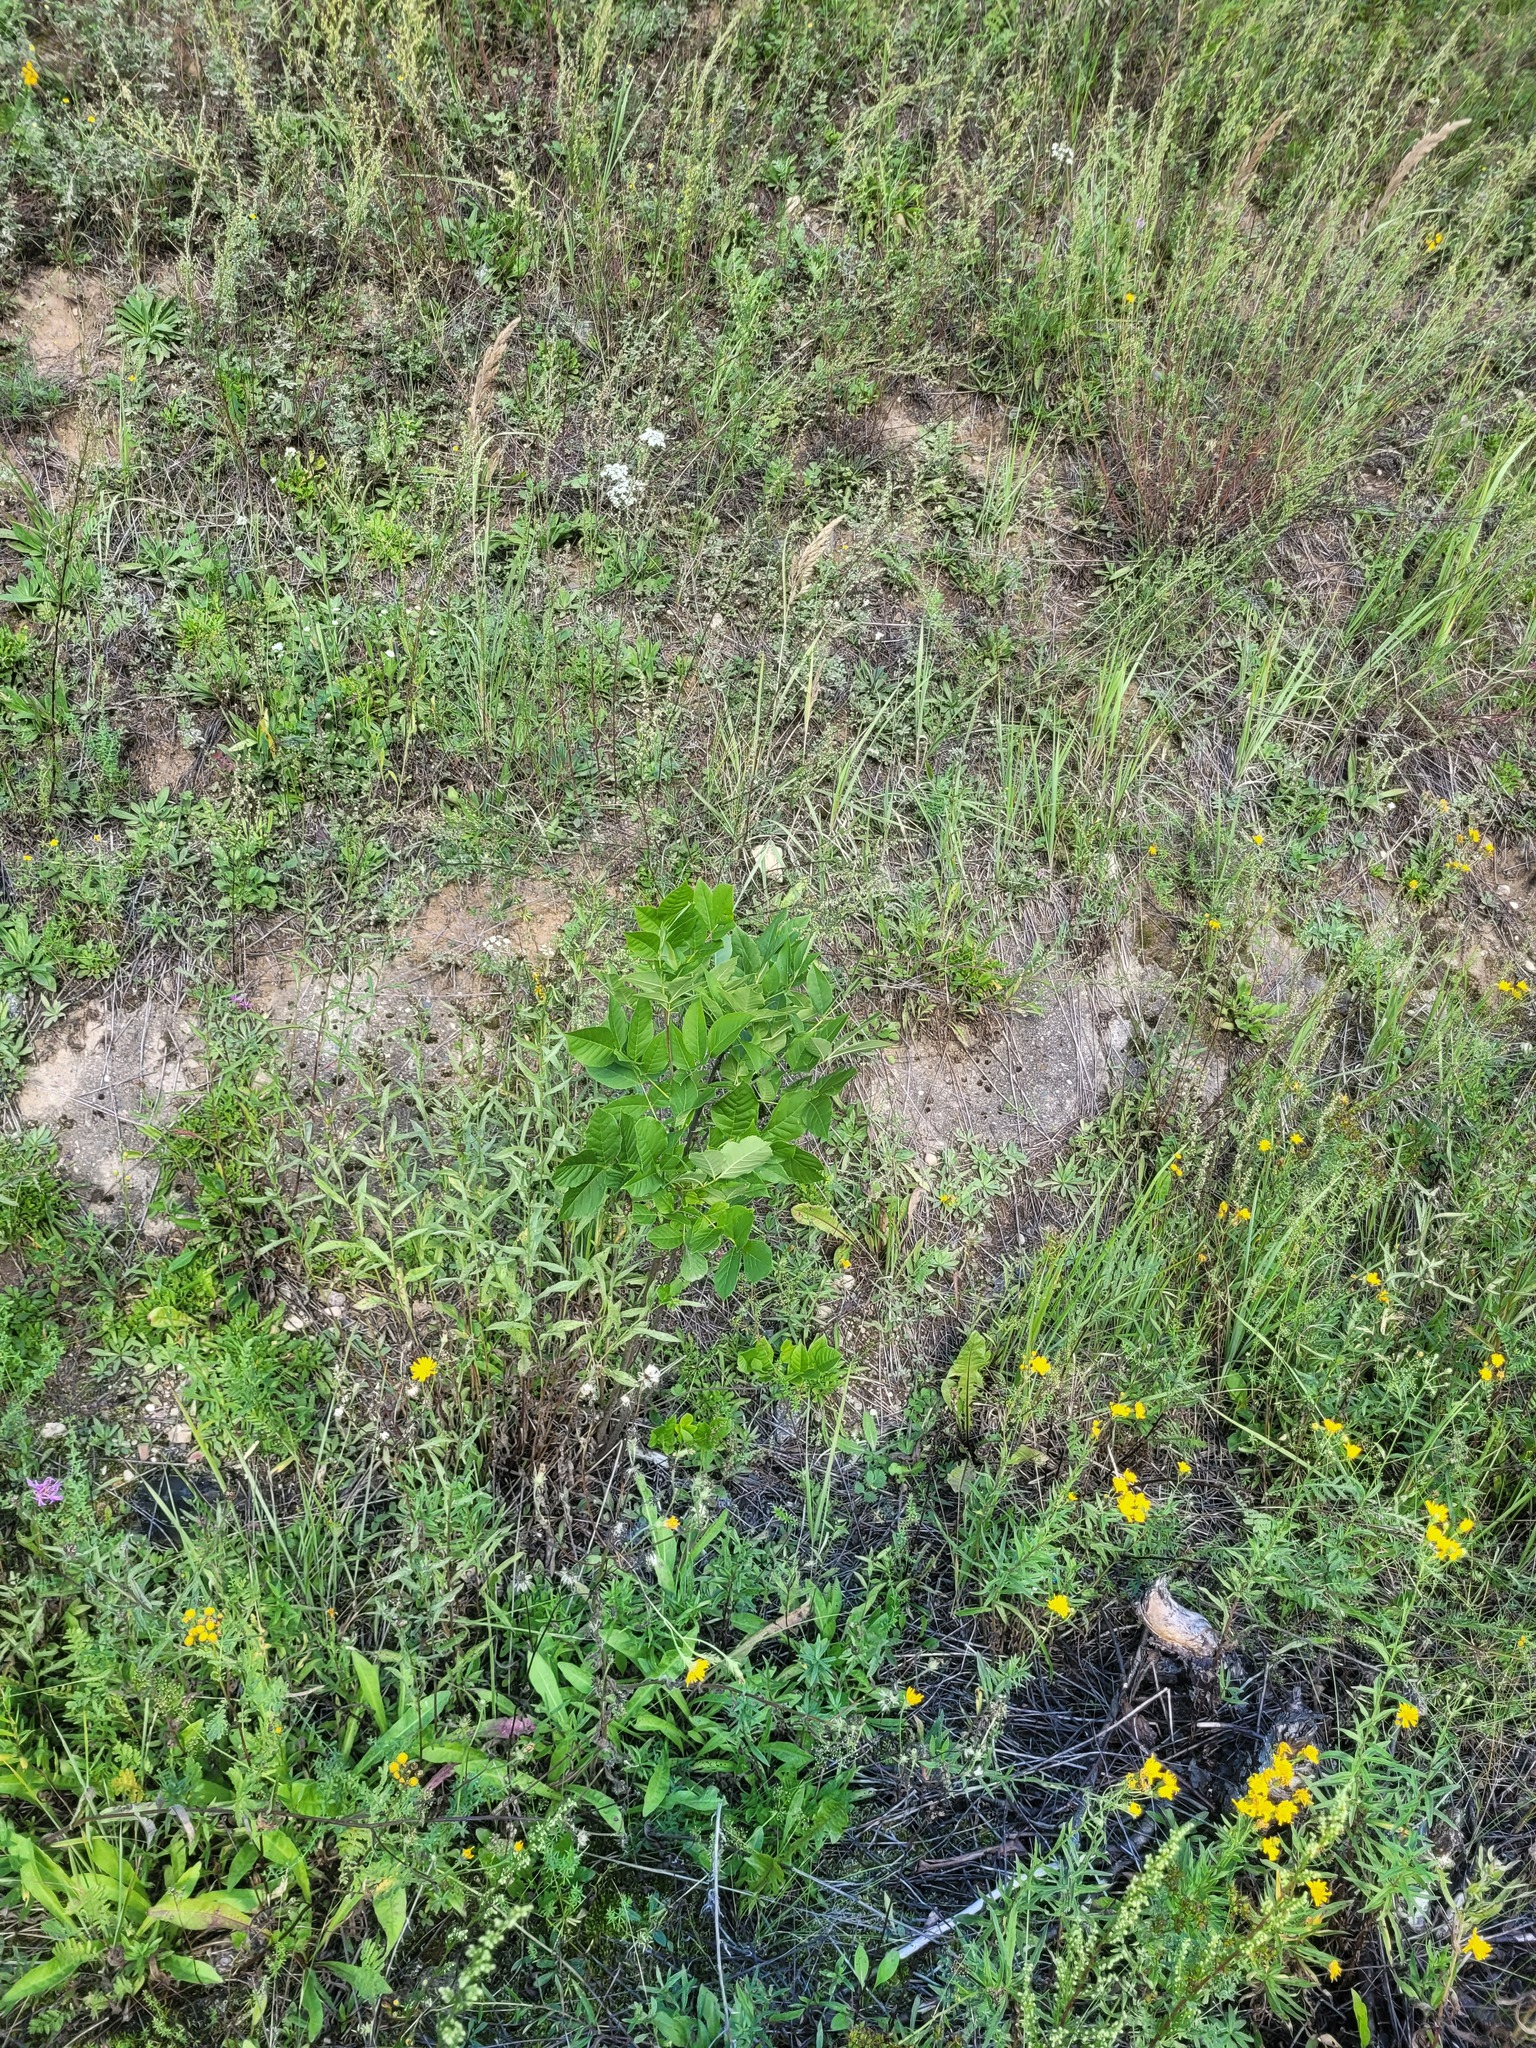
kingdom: Plantae
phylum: Tracheophyta
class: Magnoliopsida
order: Lamiales
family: Oleaceae
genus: Fraxinus
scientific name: Fraxinus pennsylvanica
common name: Green ash
